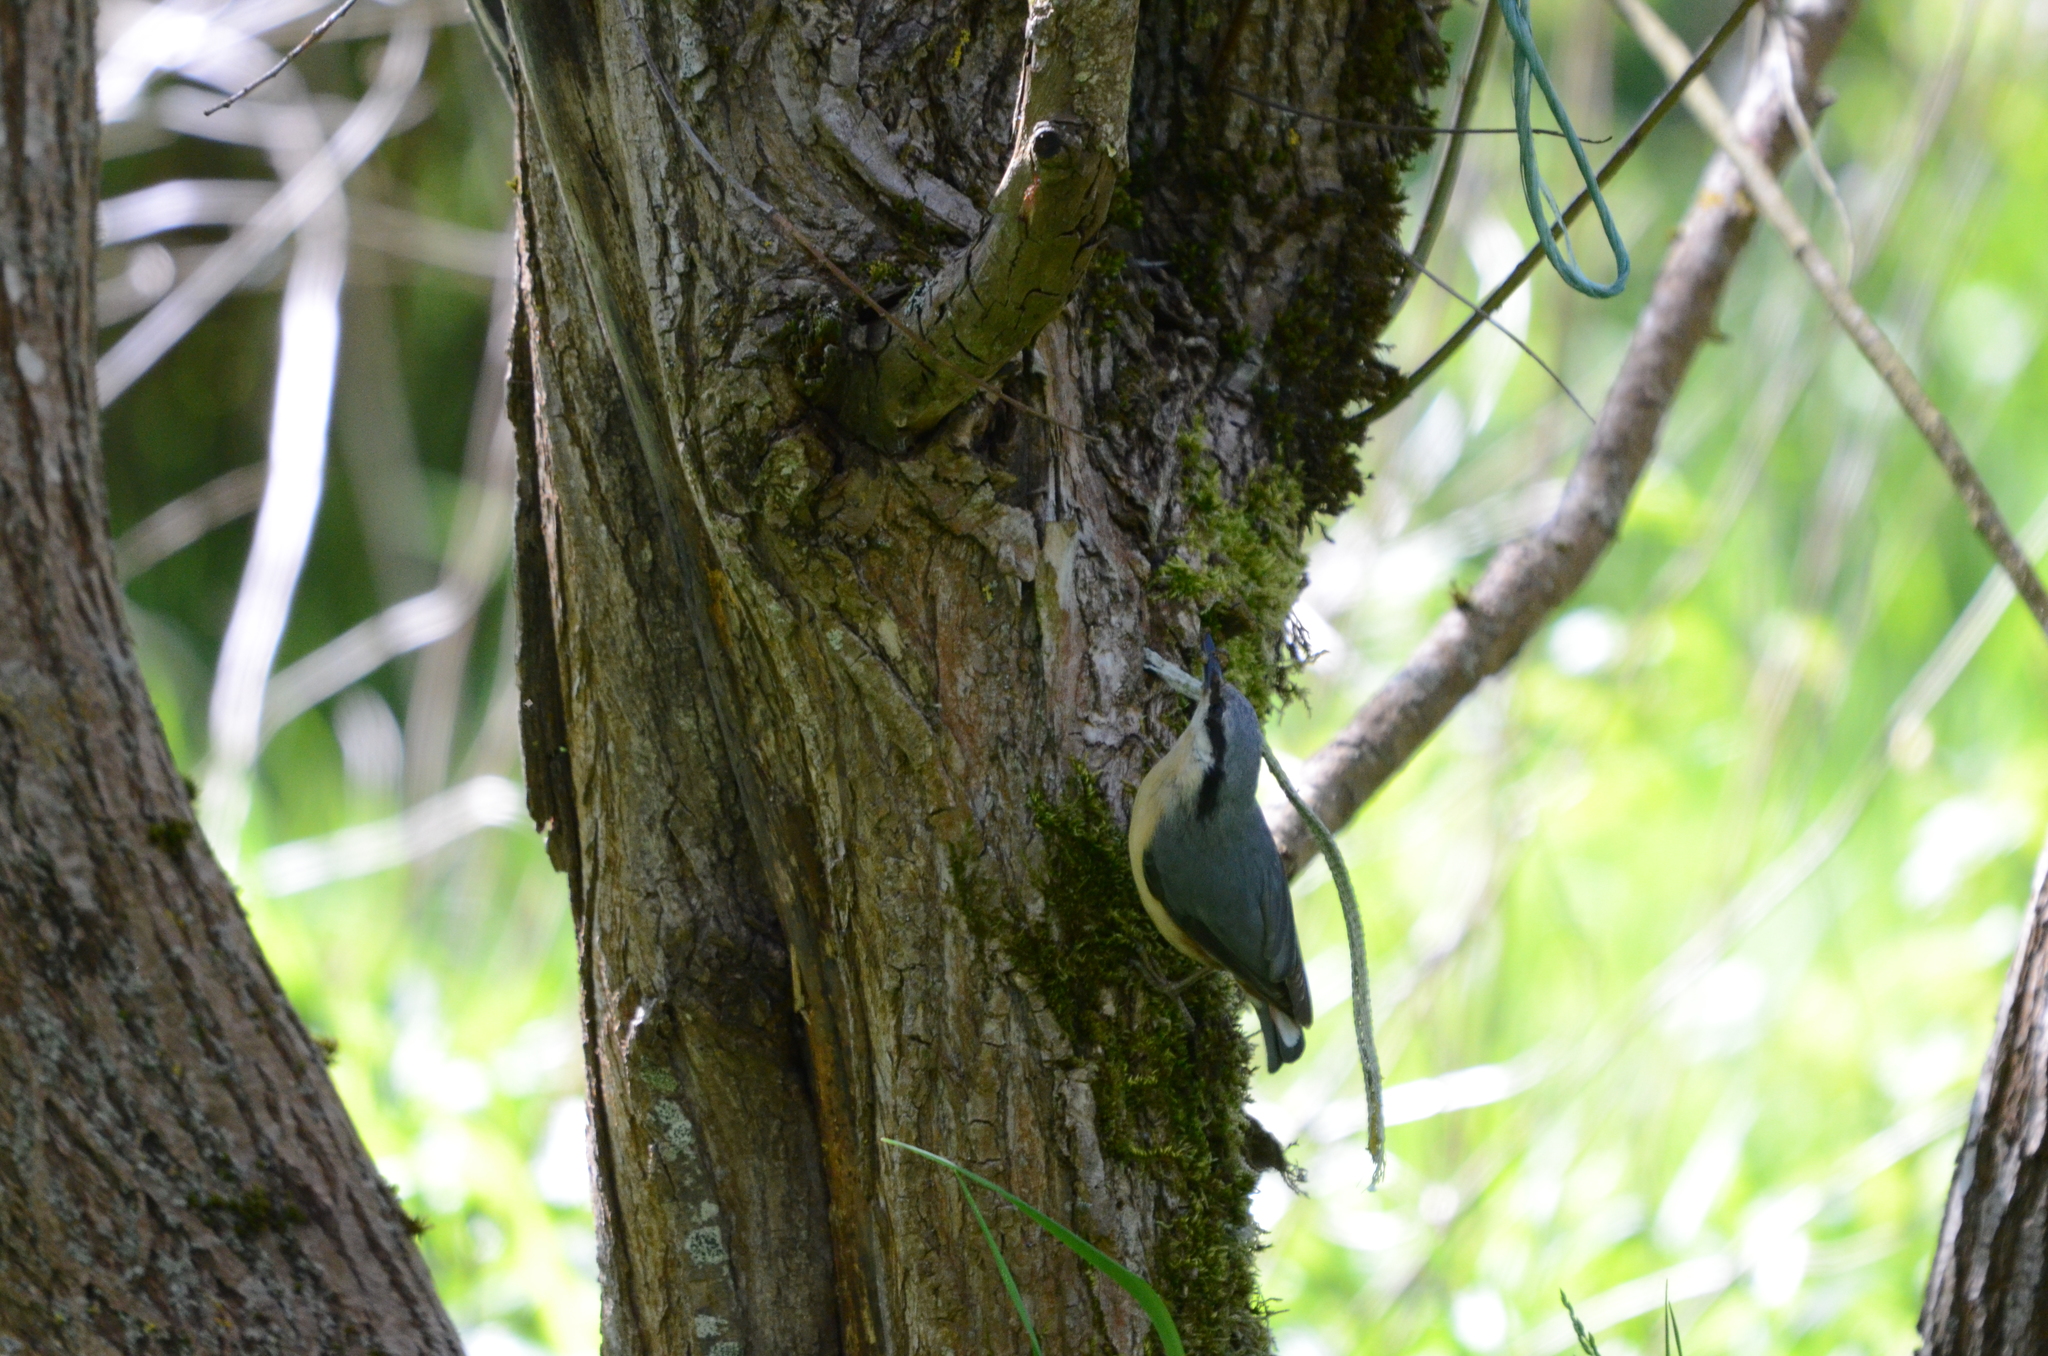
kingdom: Animalia
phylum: Chordata
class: Aves
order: Passeriformes
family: Sittidae
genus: Sitta
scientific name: Sitta europaea
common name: Eurasian nuthatch
